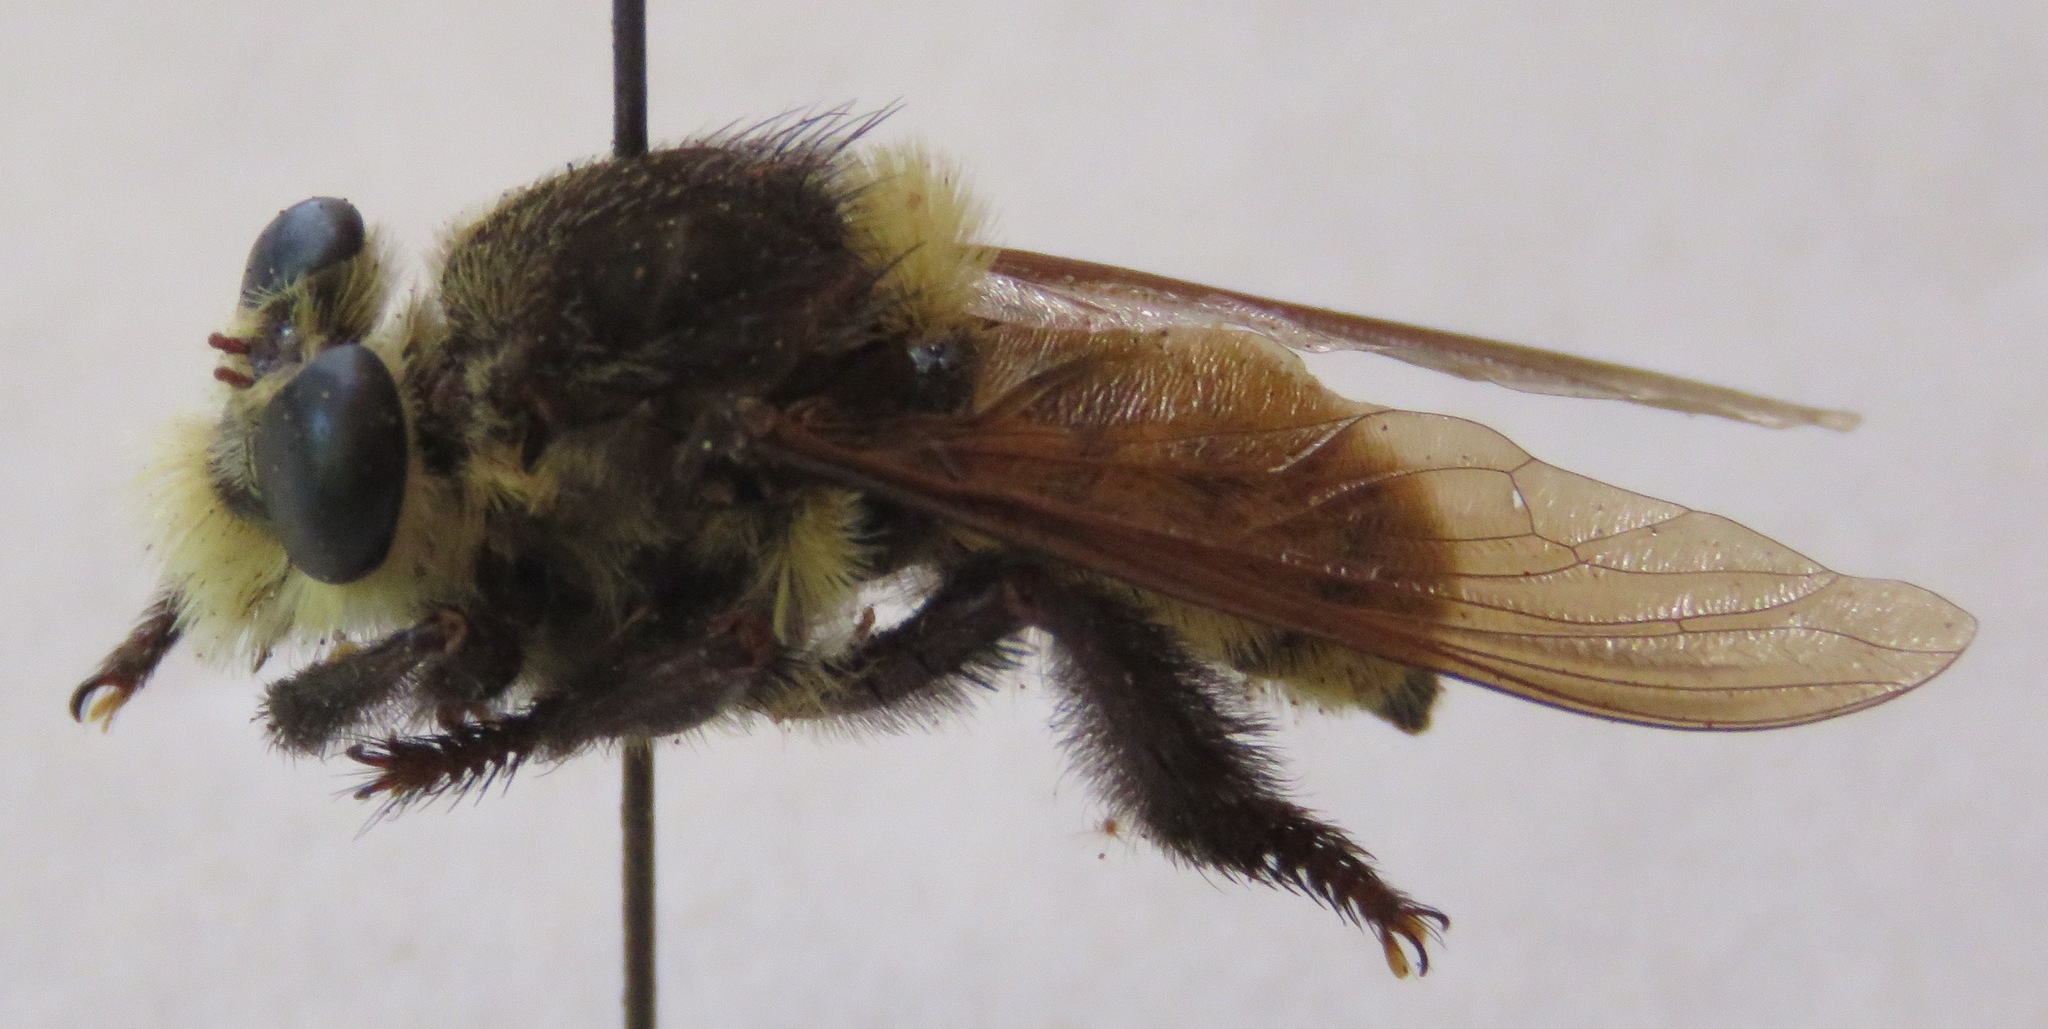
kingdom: Animalia
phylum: Arthropoda
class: Insecta
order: Diptera
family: Asilidae
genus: Mallophora
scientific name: Mallophora fautrix
